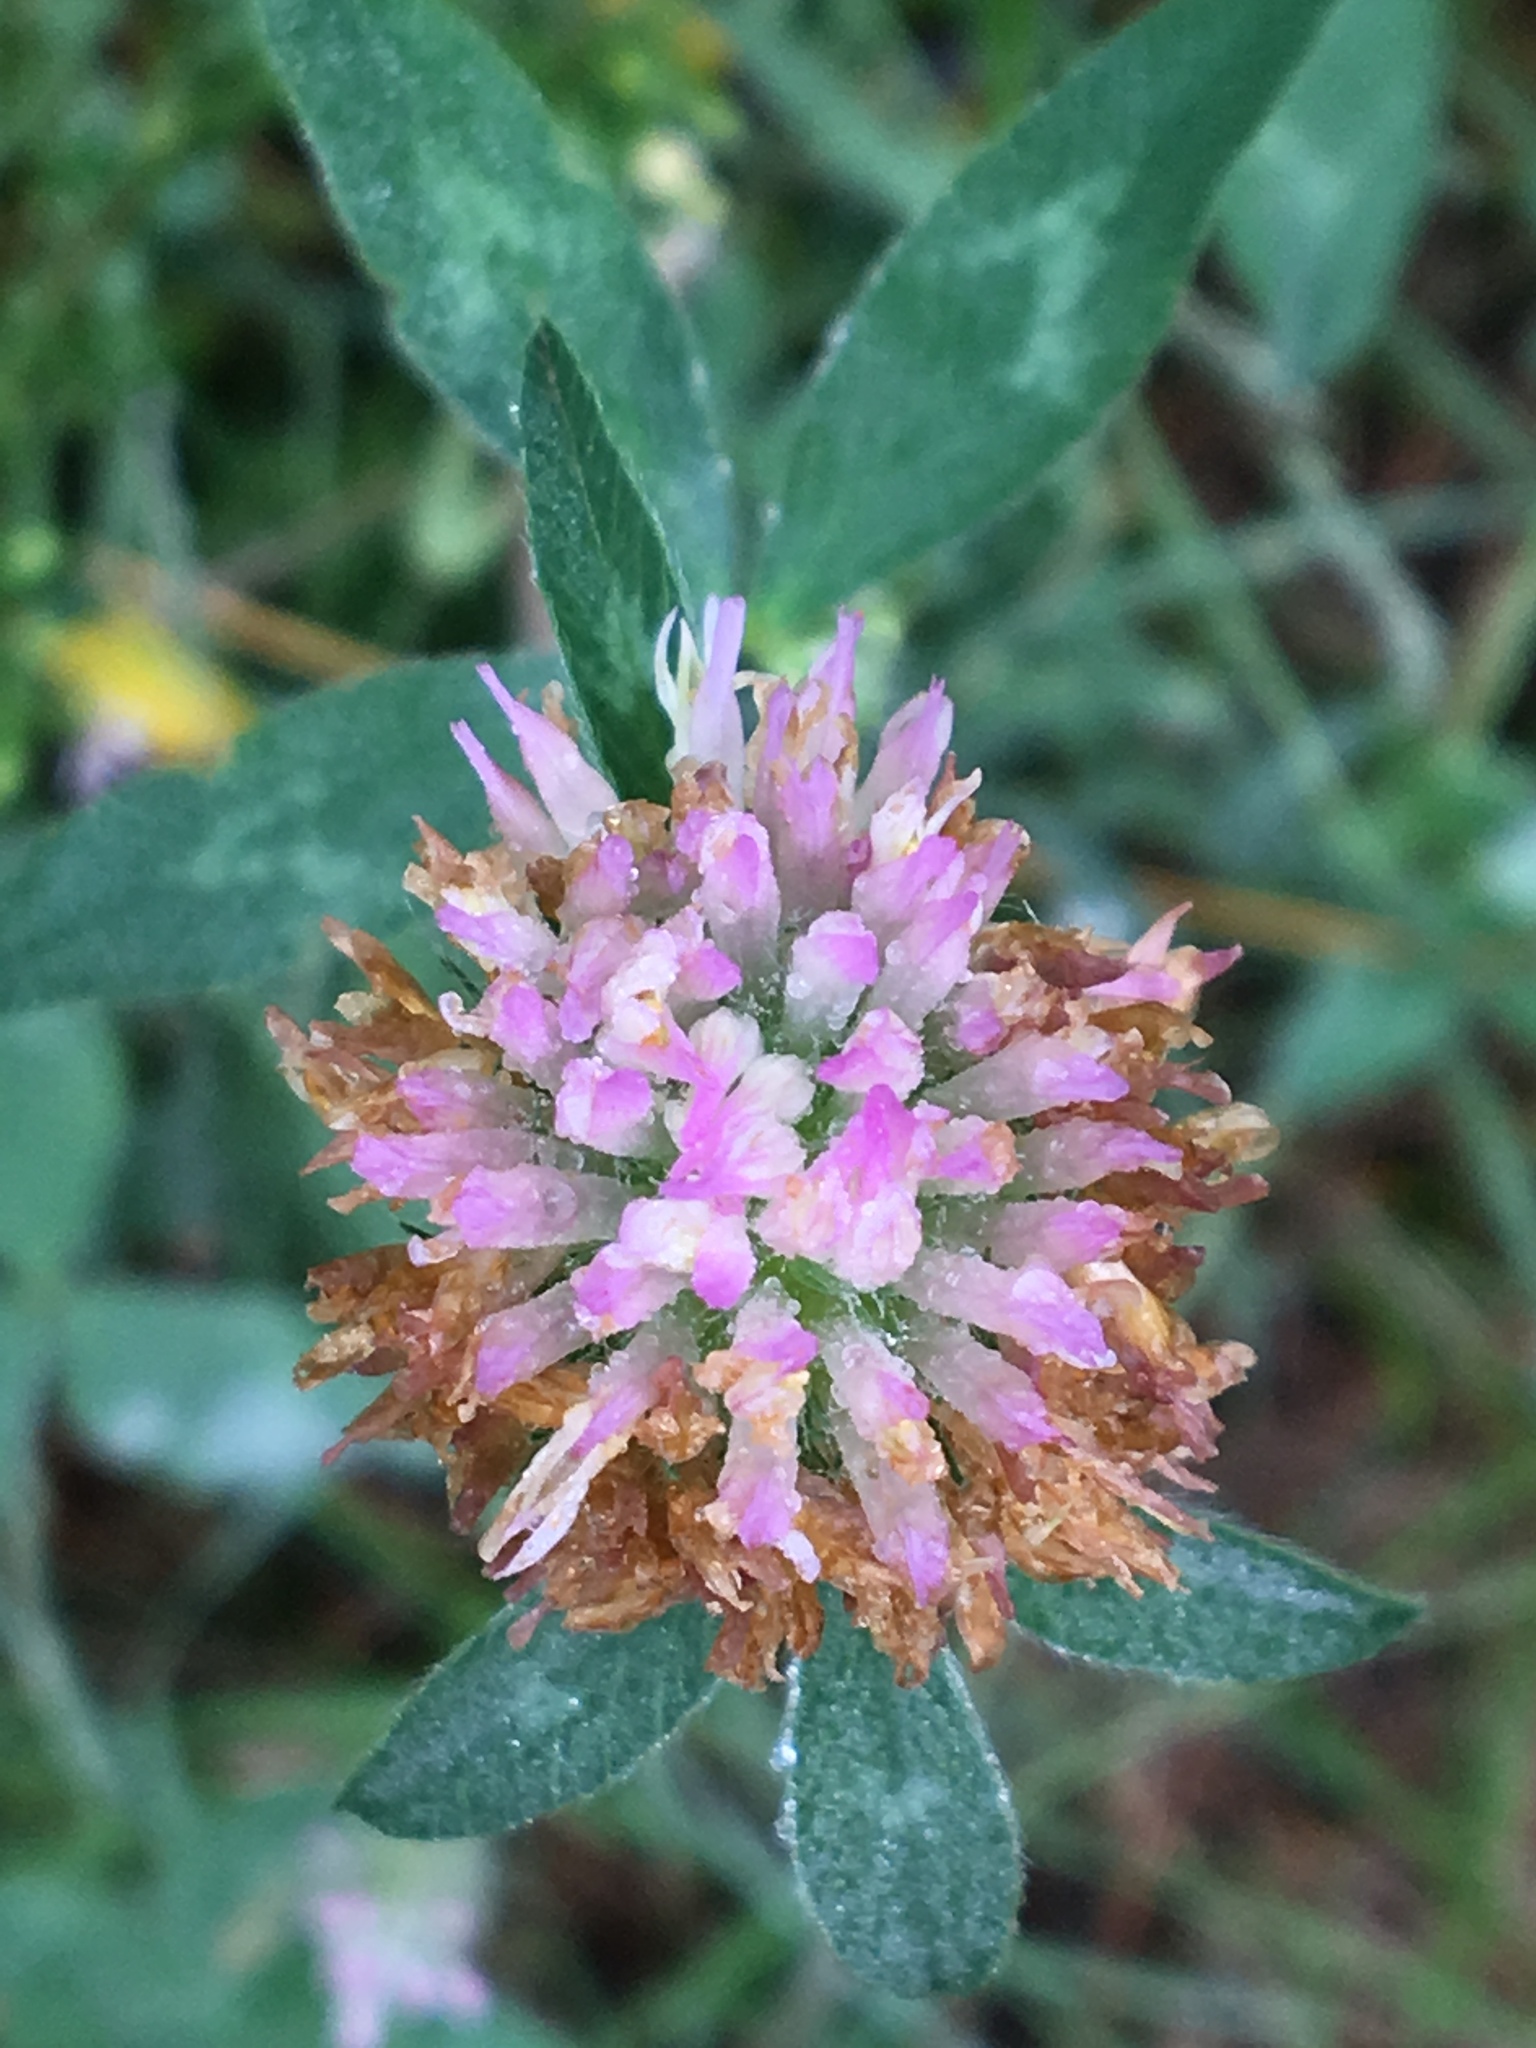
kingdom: Plantae
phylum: Tracheophyta
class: Magnoliopsida
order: Fabales
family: Fabaceae
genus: Trifolium
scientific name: Trifolium pratense
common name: Red clover
